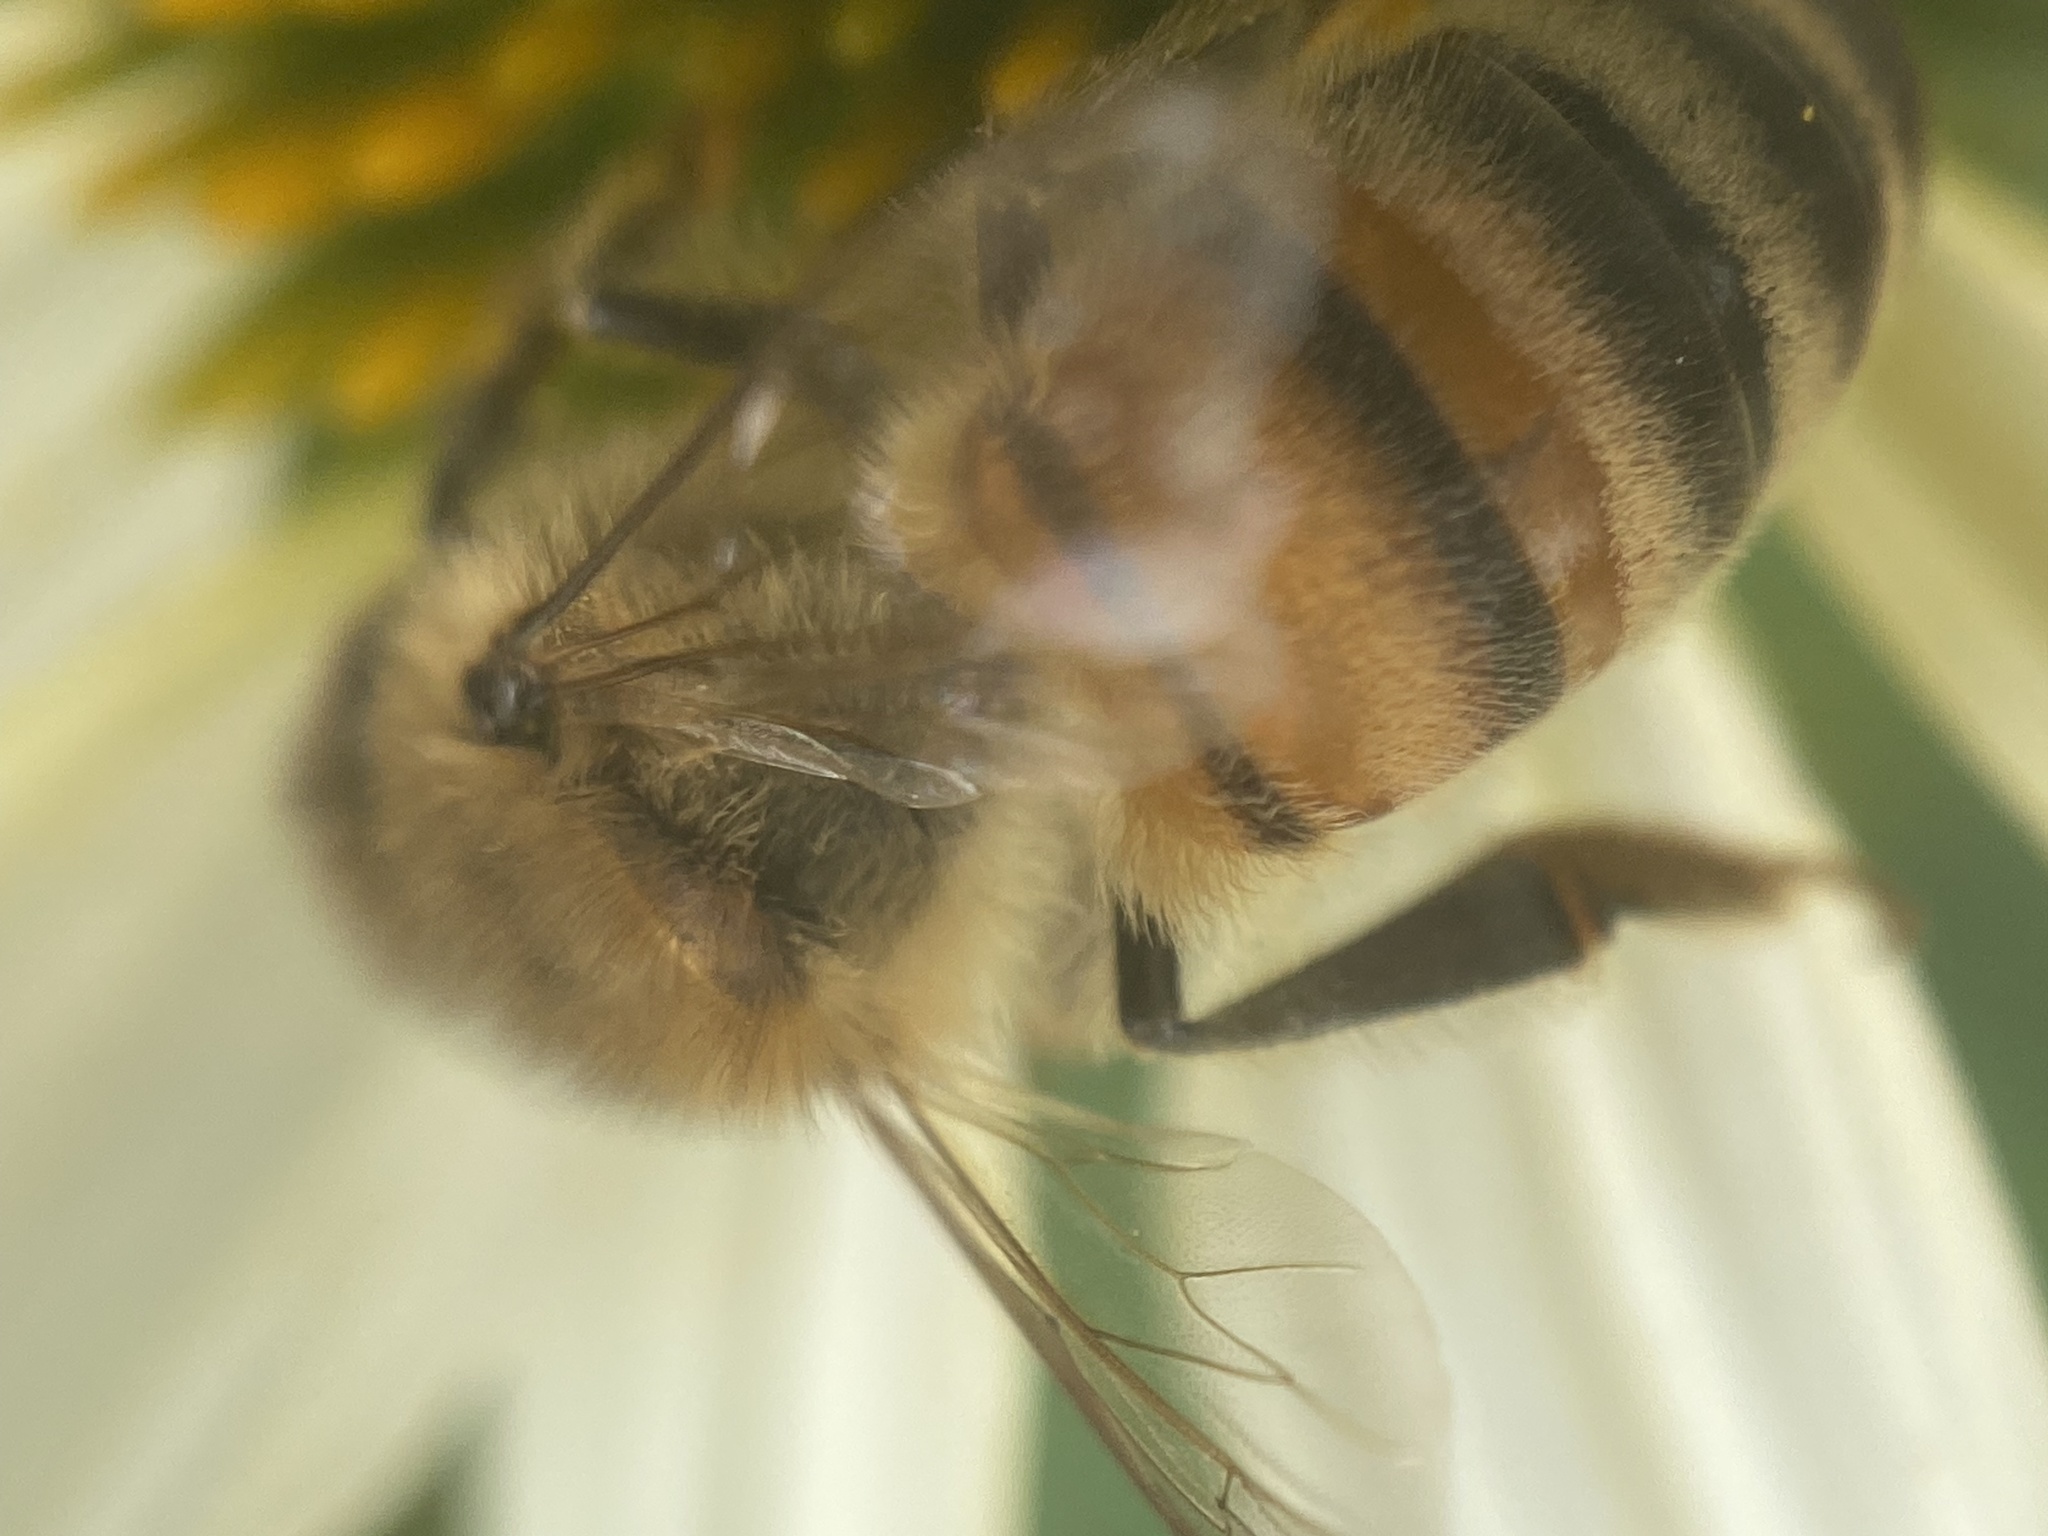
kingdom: Animalia
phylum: Arthropoda
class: Insecta
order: Hymenoptera
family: Apidae
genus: Apis
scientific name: Apis mellifera
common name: Honey bee
